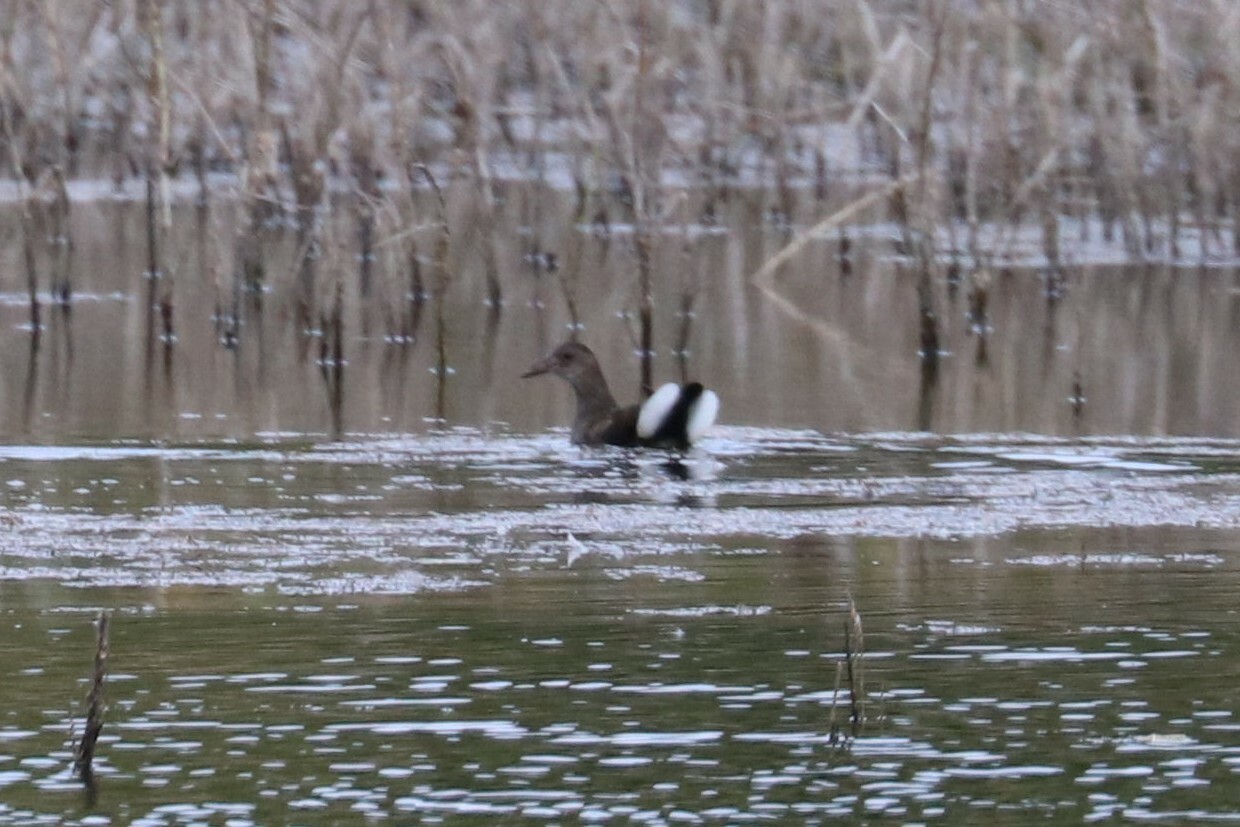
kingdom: Animalia
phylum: Chordata
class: Aves
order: Gruiformes
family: Rallidae
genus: Gallinula
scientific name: Gallinula chloropus
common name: Common moorhen
